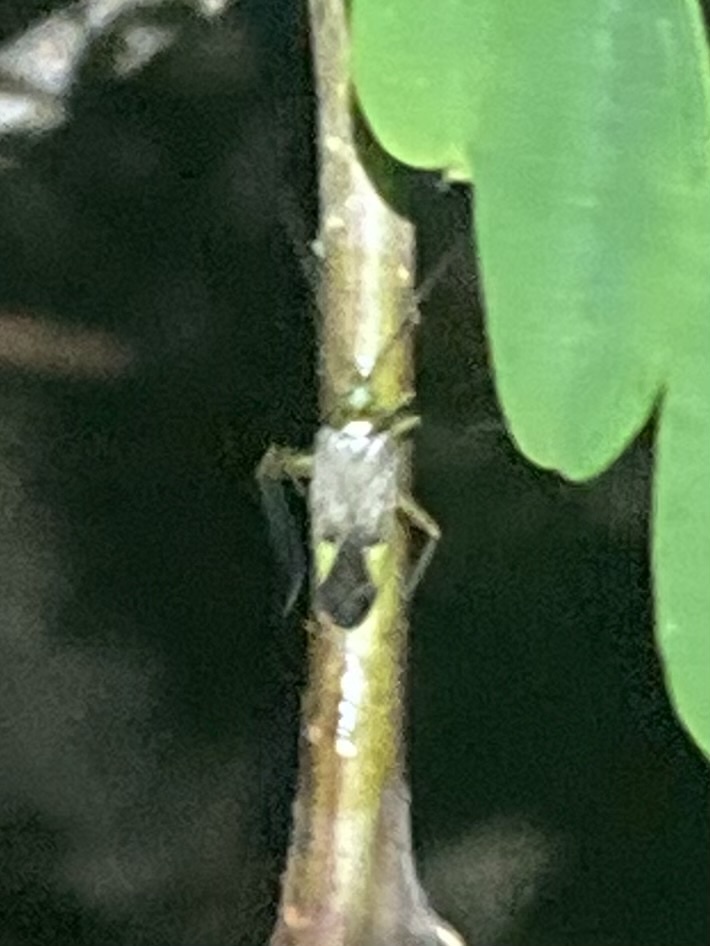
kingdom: Animalia
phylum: Arthropoda
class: Insecta
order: Hemiptera
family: Miridae
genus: Closterotomus
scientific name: Closterotomus trivialis
